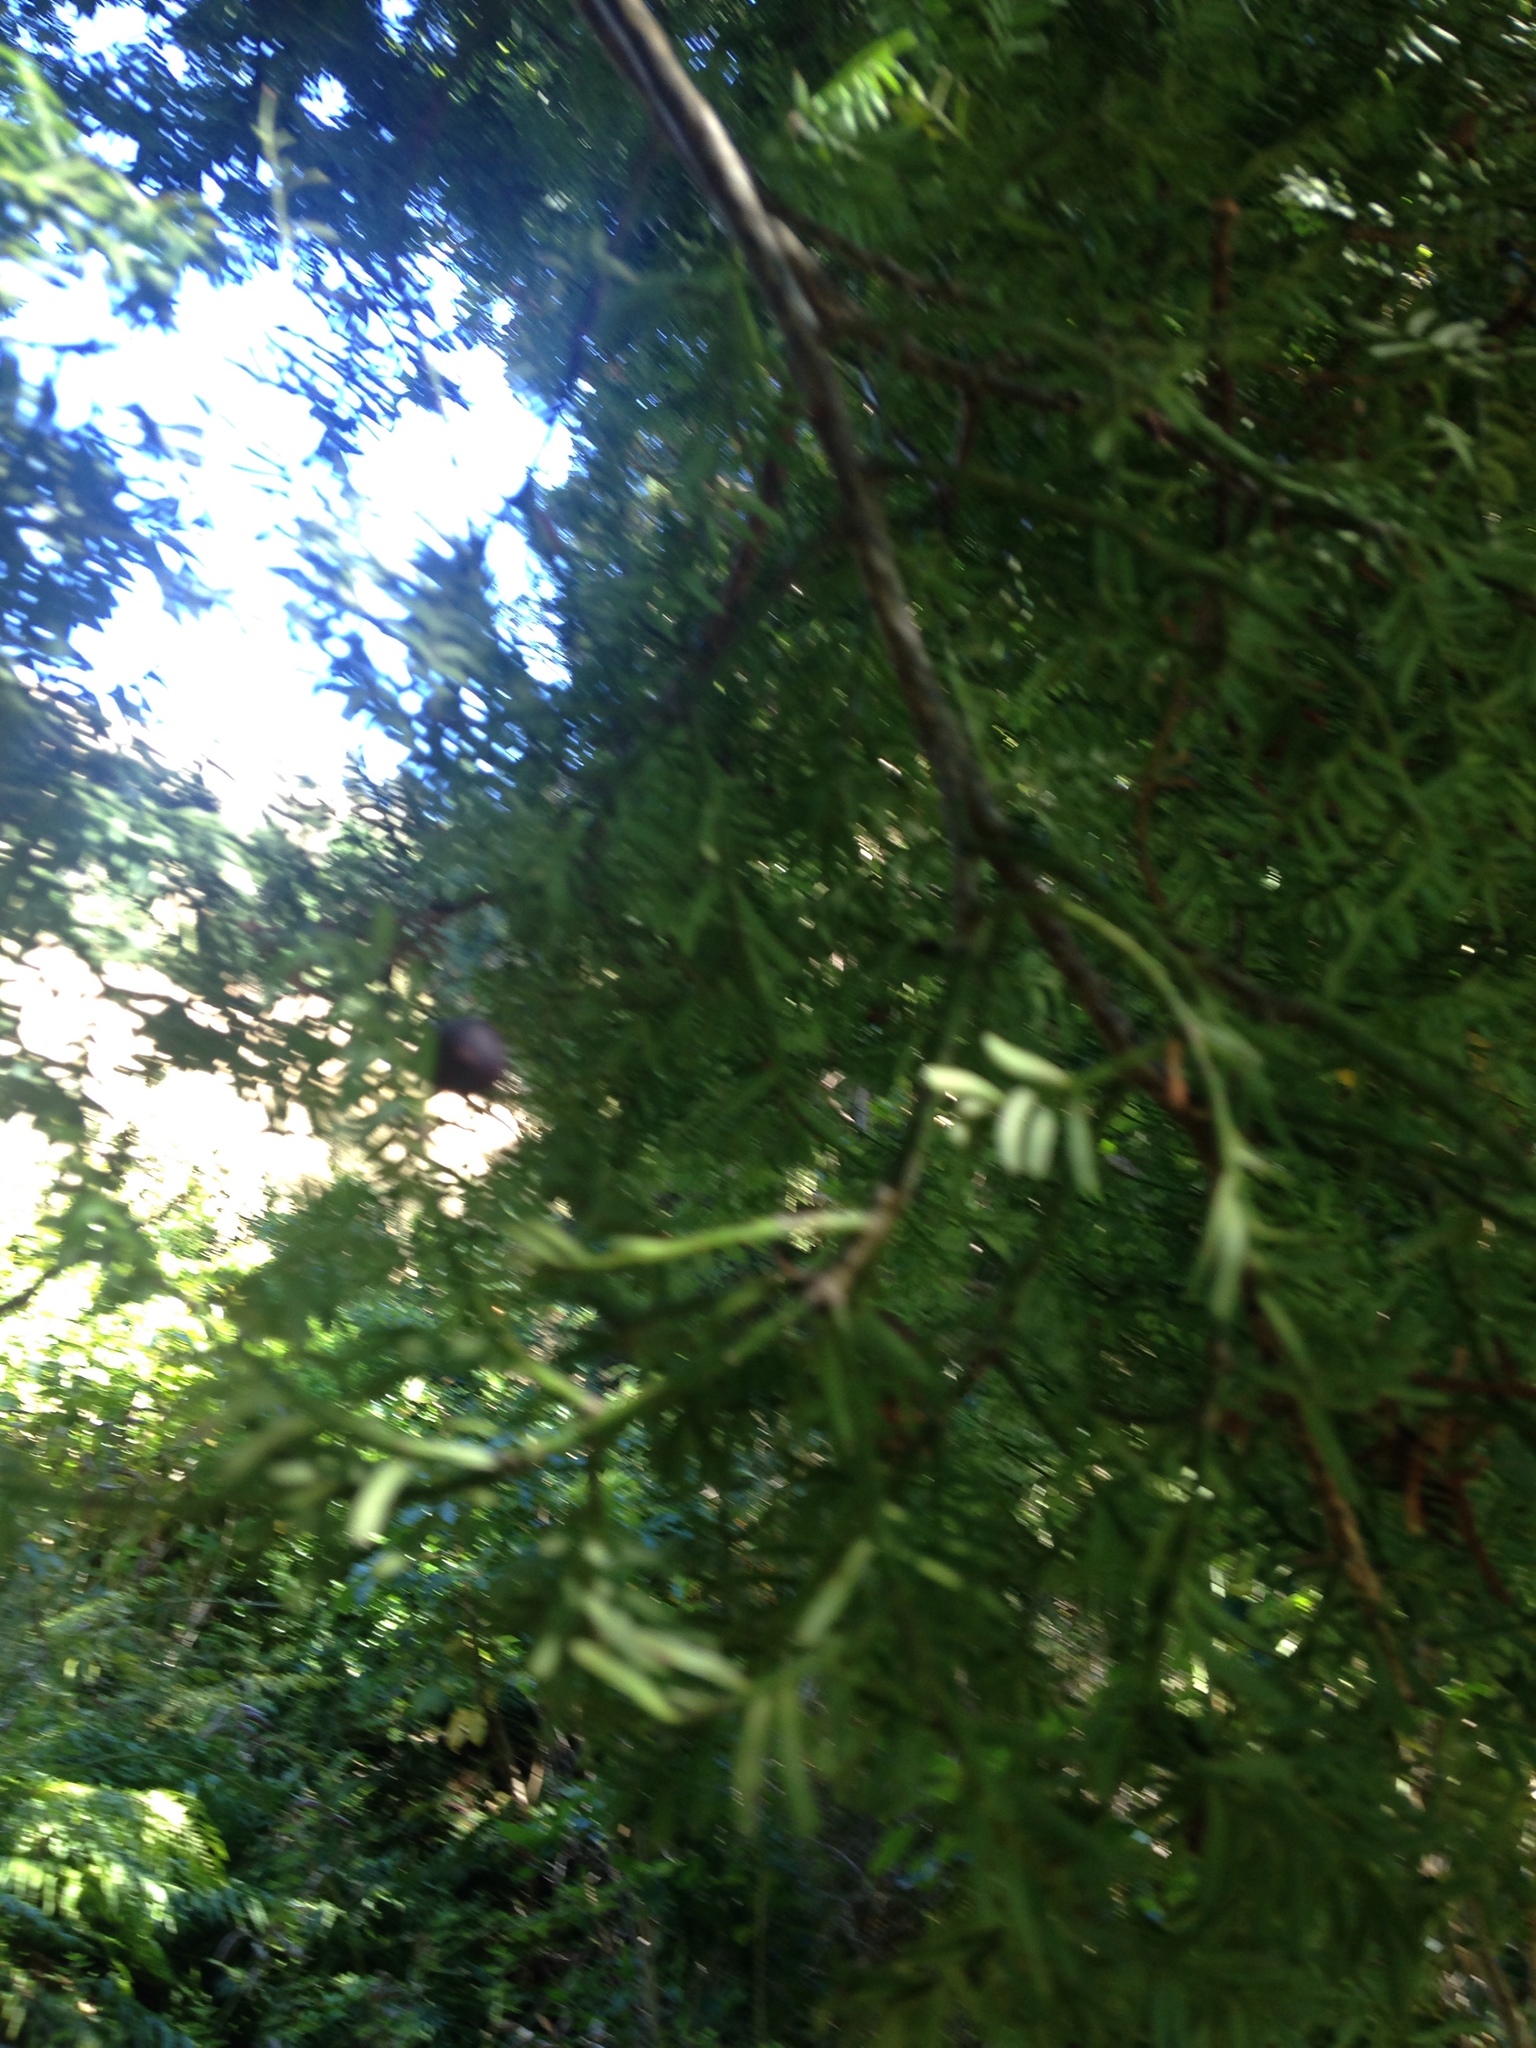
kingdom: Plantae
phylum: Tracheophyta
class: Pinopsida
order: Pinales
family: Podocarpaceae
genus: Prumnopitys
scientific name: Prumnopitys taxifolia
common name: Matai
